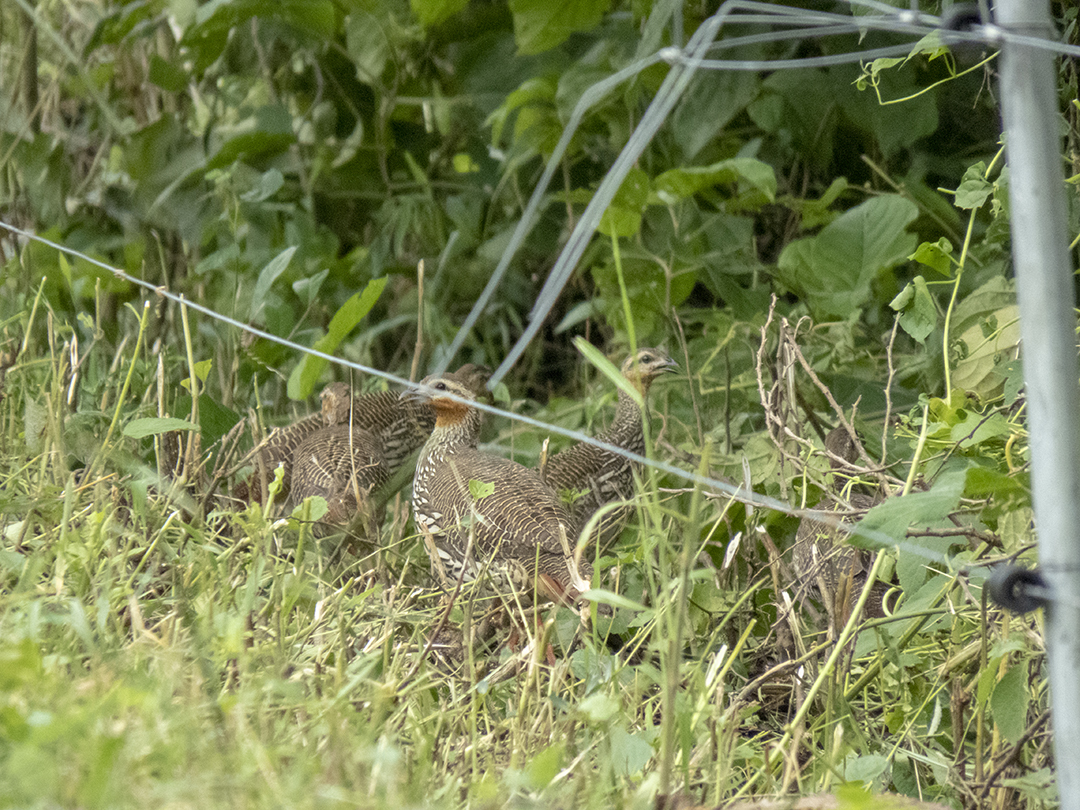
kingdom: Animalia
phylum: Chordata
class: Aves
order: Galliformes
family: Phasianidae
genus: Ortygornis
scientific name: Ortygornis gularis
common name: Swamp francolin
